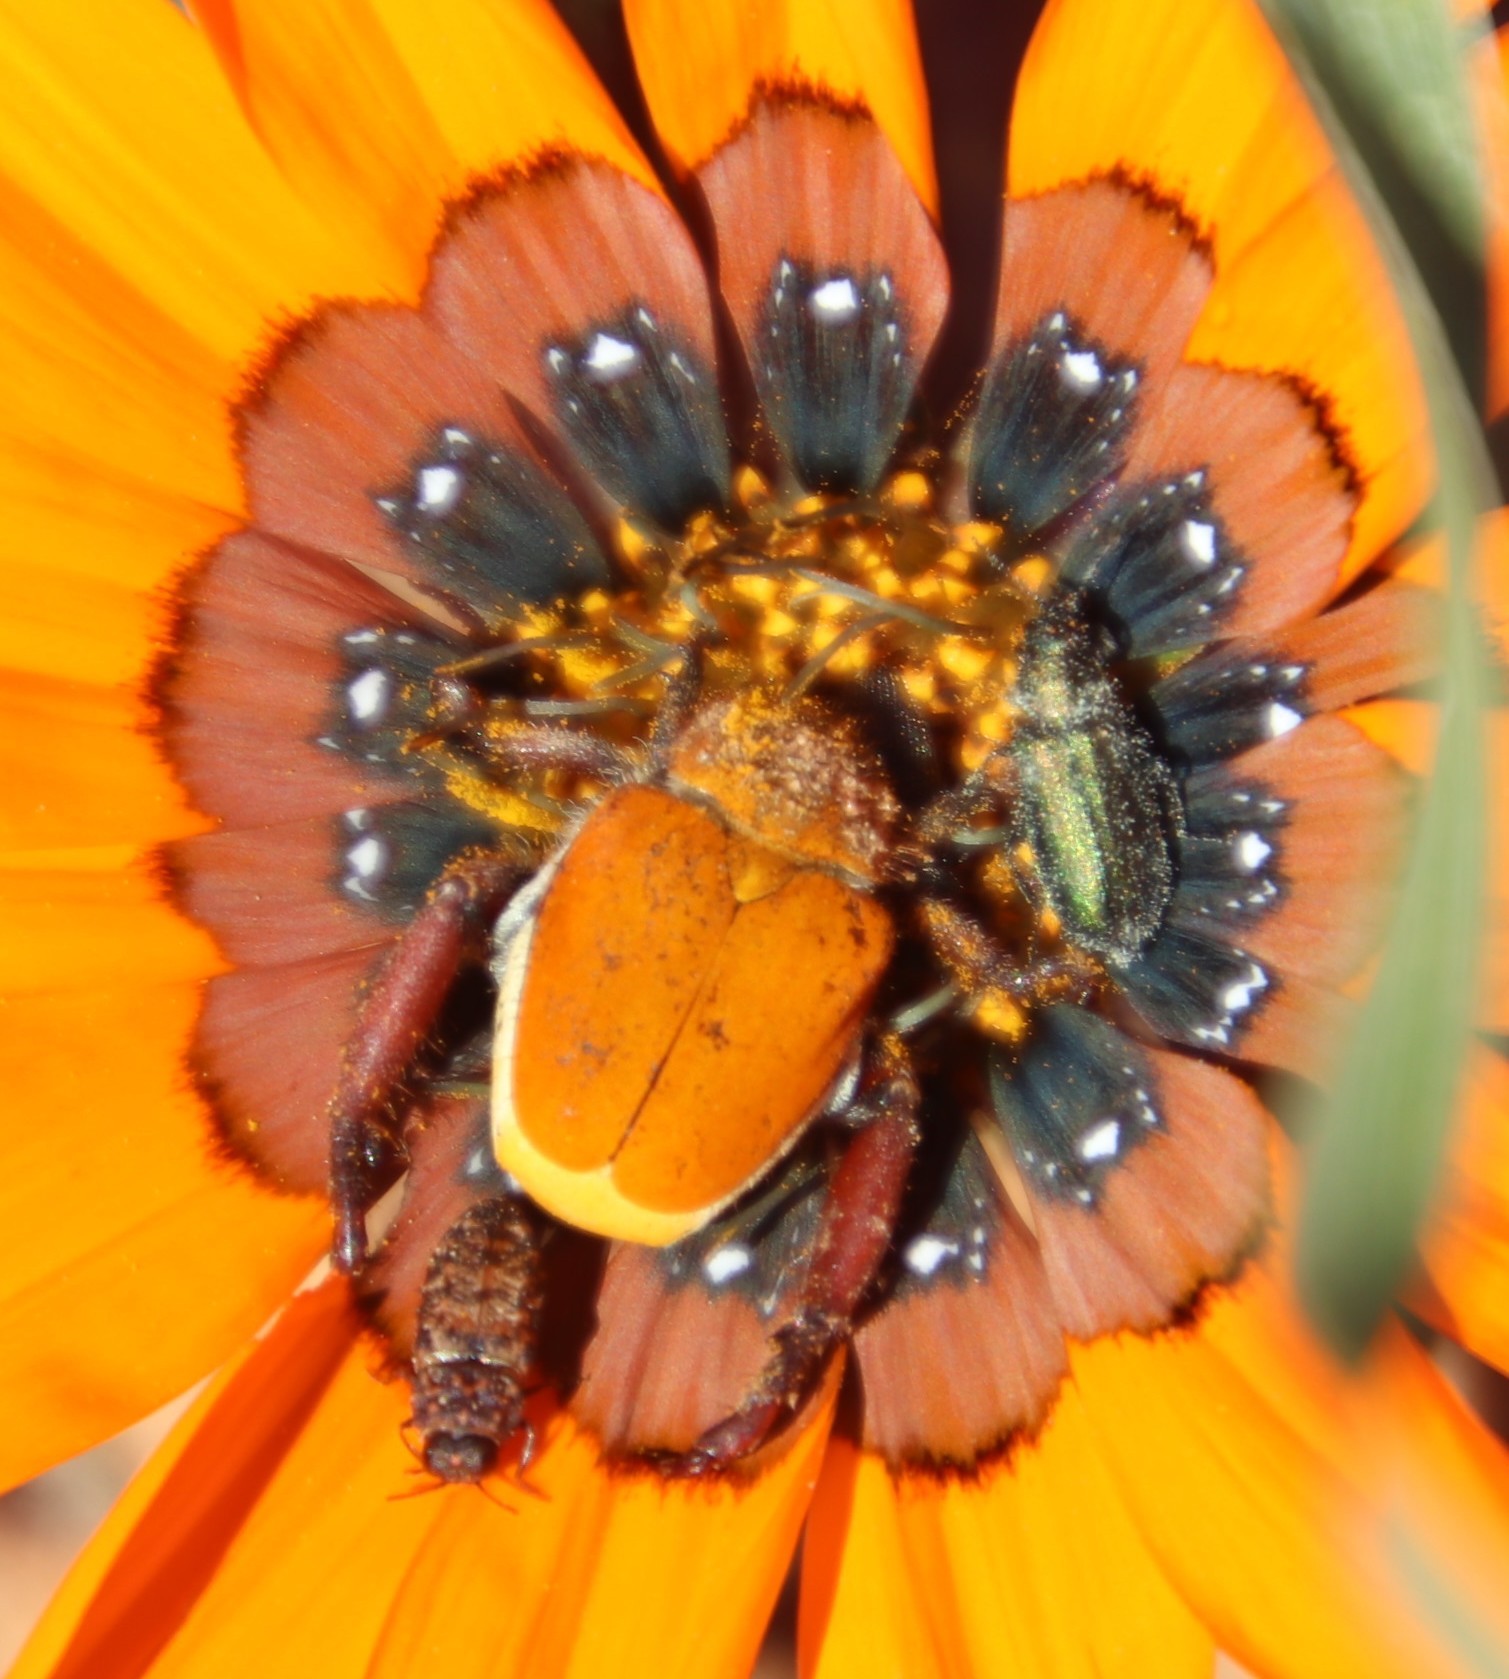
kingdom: Animalia
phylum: Arthropoda
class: Insecta
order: Coleoptera
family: Scarabaeidae
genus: Scelophysa
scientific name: Scelophysa scheffoldi
